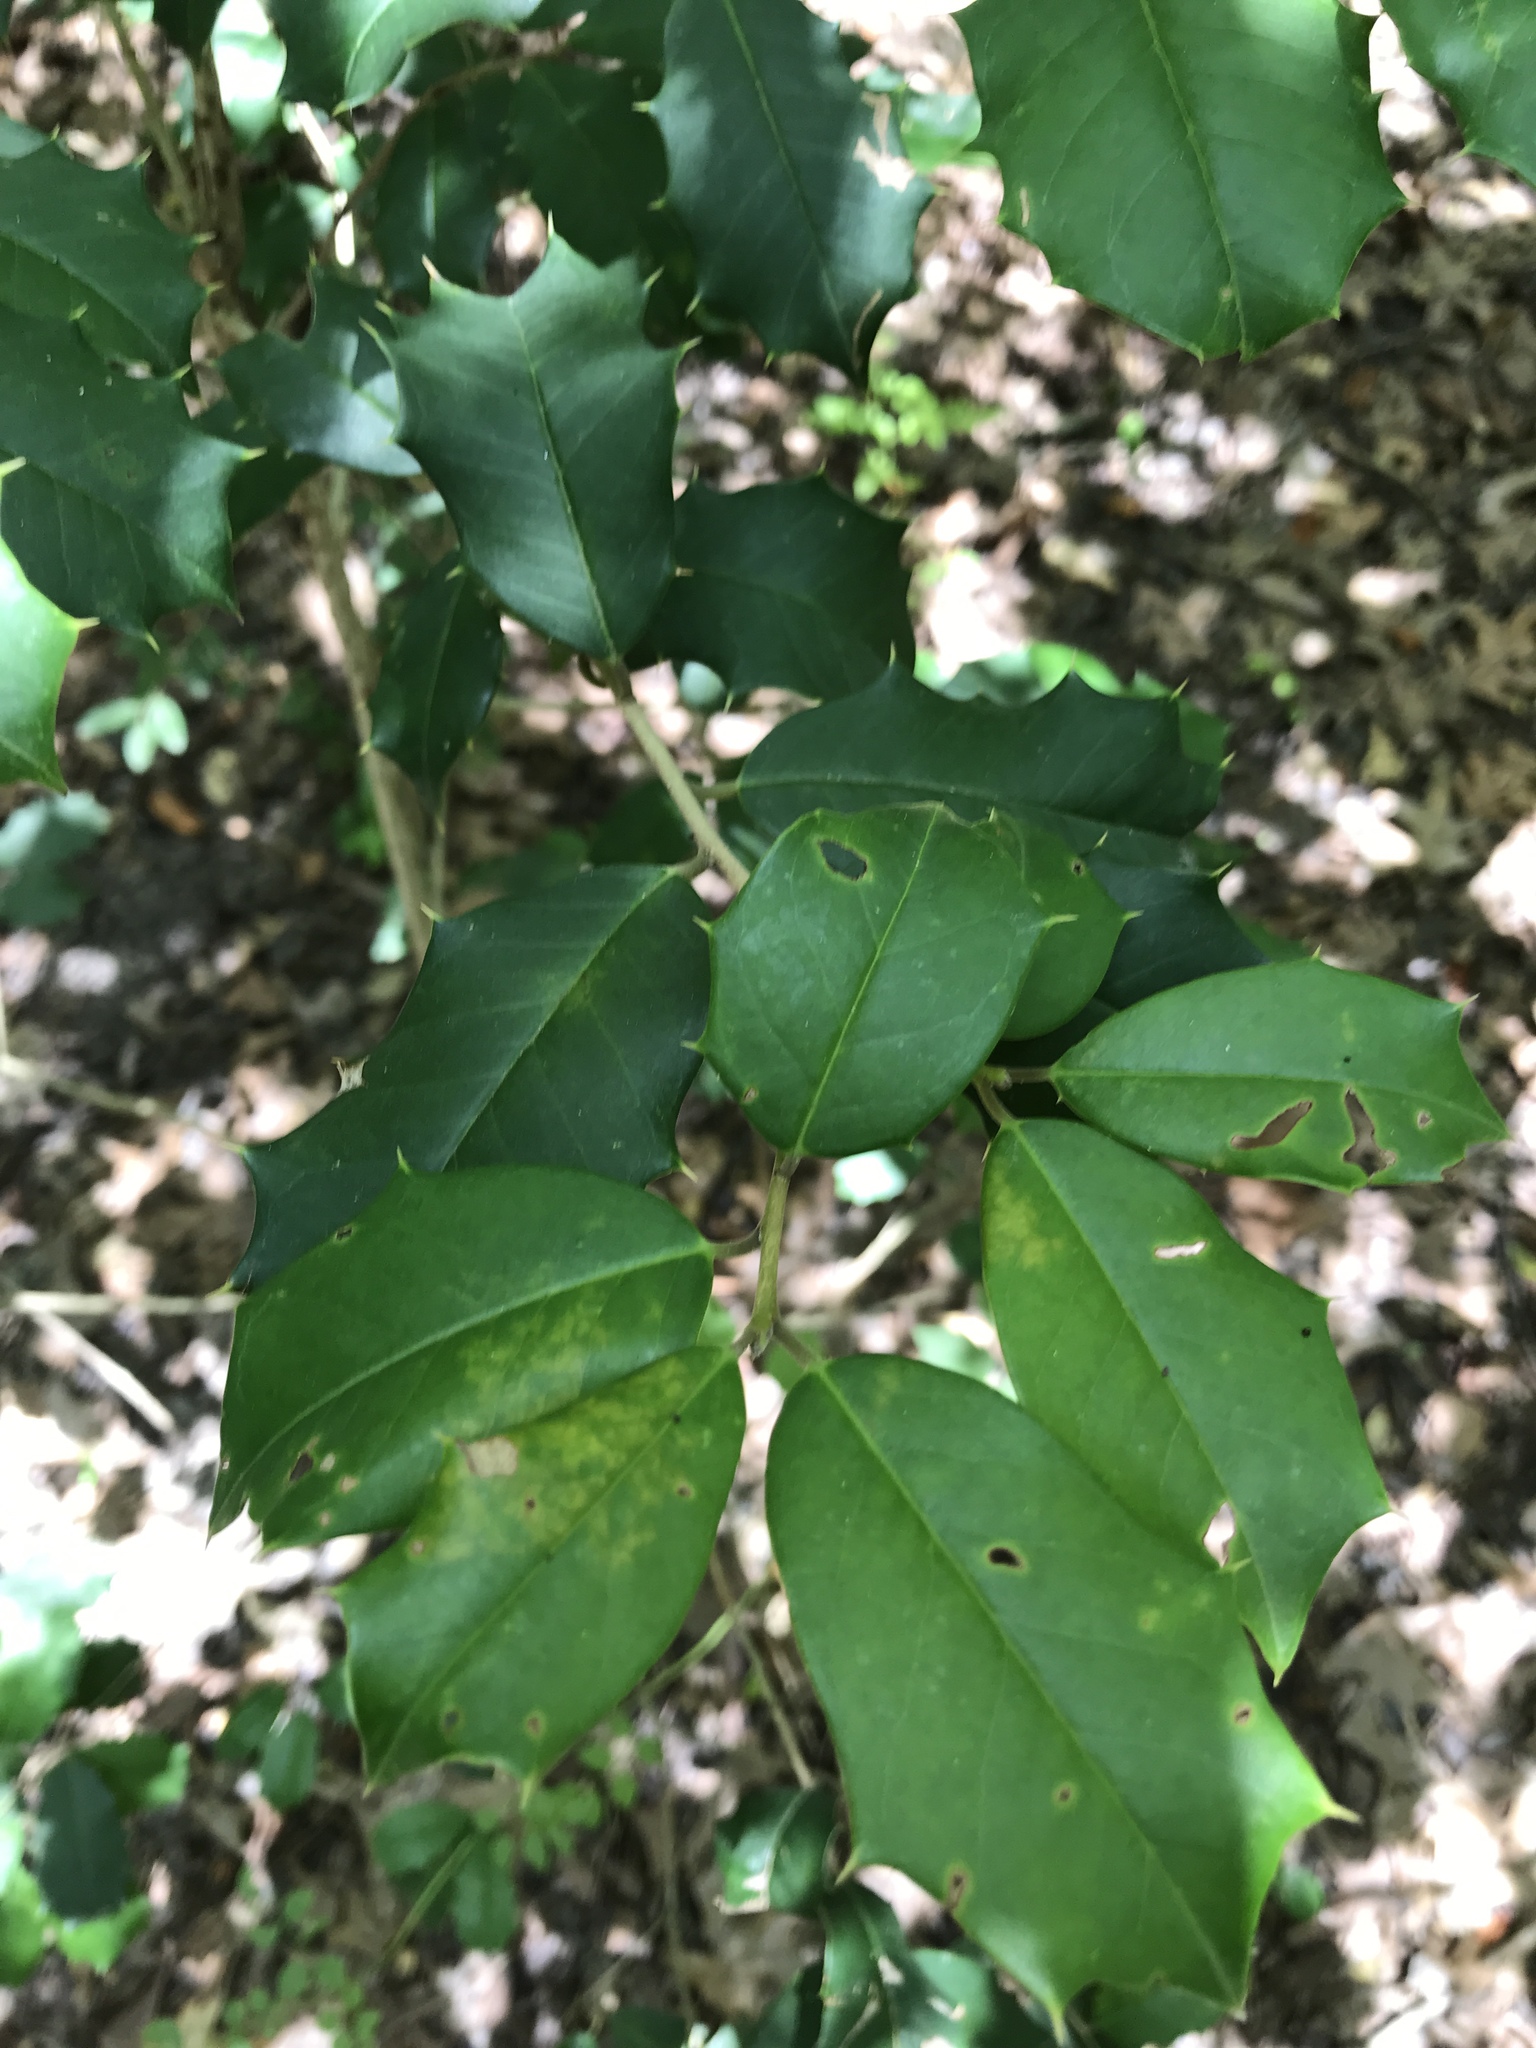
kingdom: Plantae
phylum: Tracheophyta
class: Magnoliopsida
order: Aquifoliales
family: Aquifoliaceae
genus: Ilex
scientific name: Ilex opaca
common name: American holly
